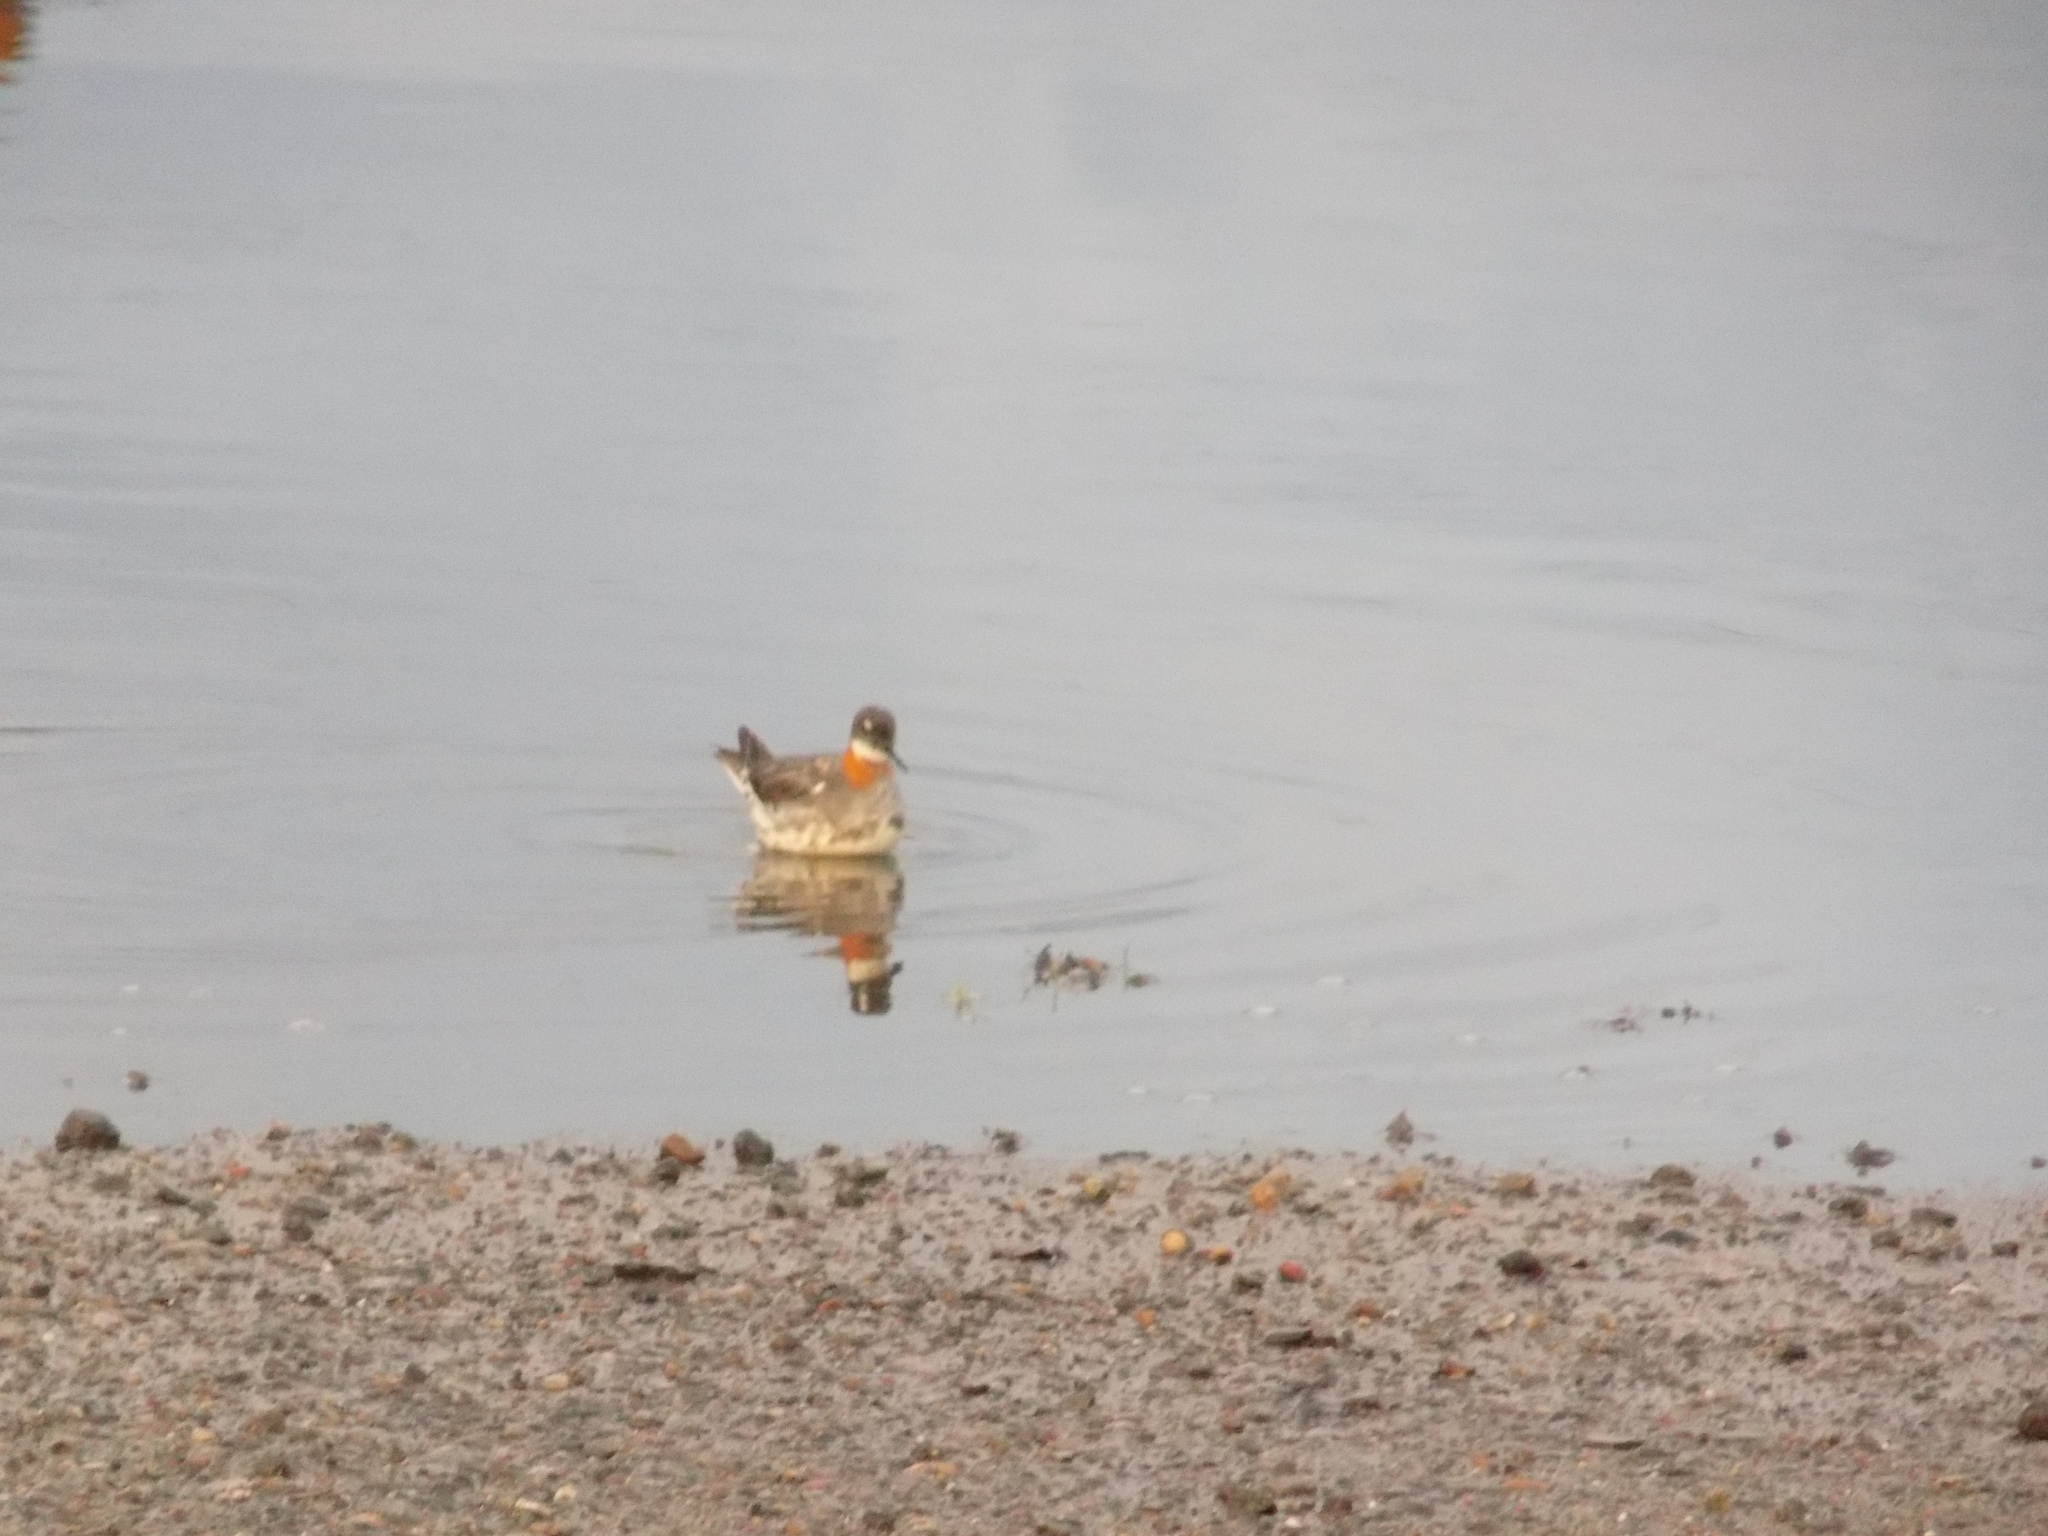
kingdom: Animalia
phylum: Chordata
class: Aves
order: Charadriiformes
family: Scolopacidae
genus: Phalaropus
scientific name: Phalaropus lobatus
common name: Red-necked phalarope
